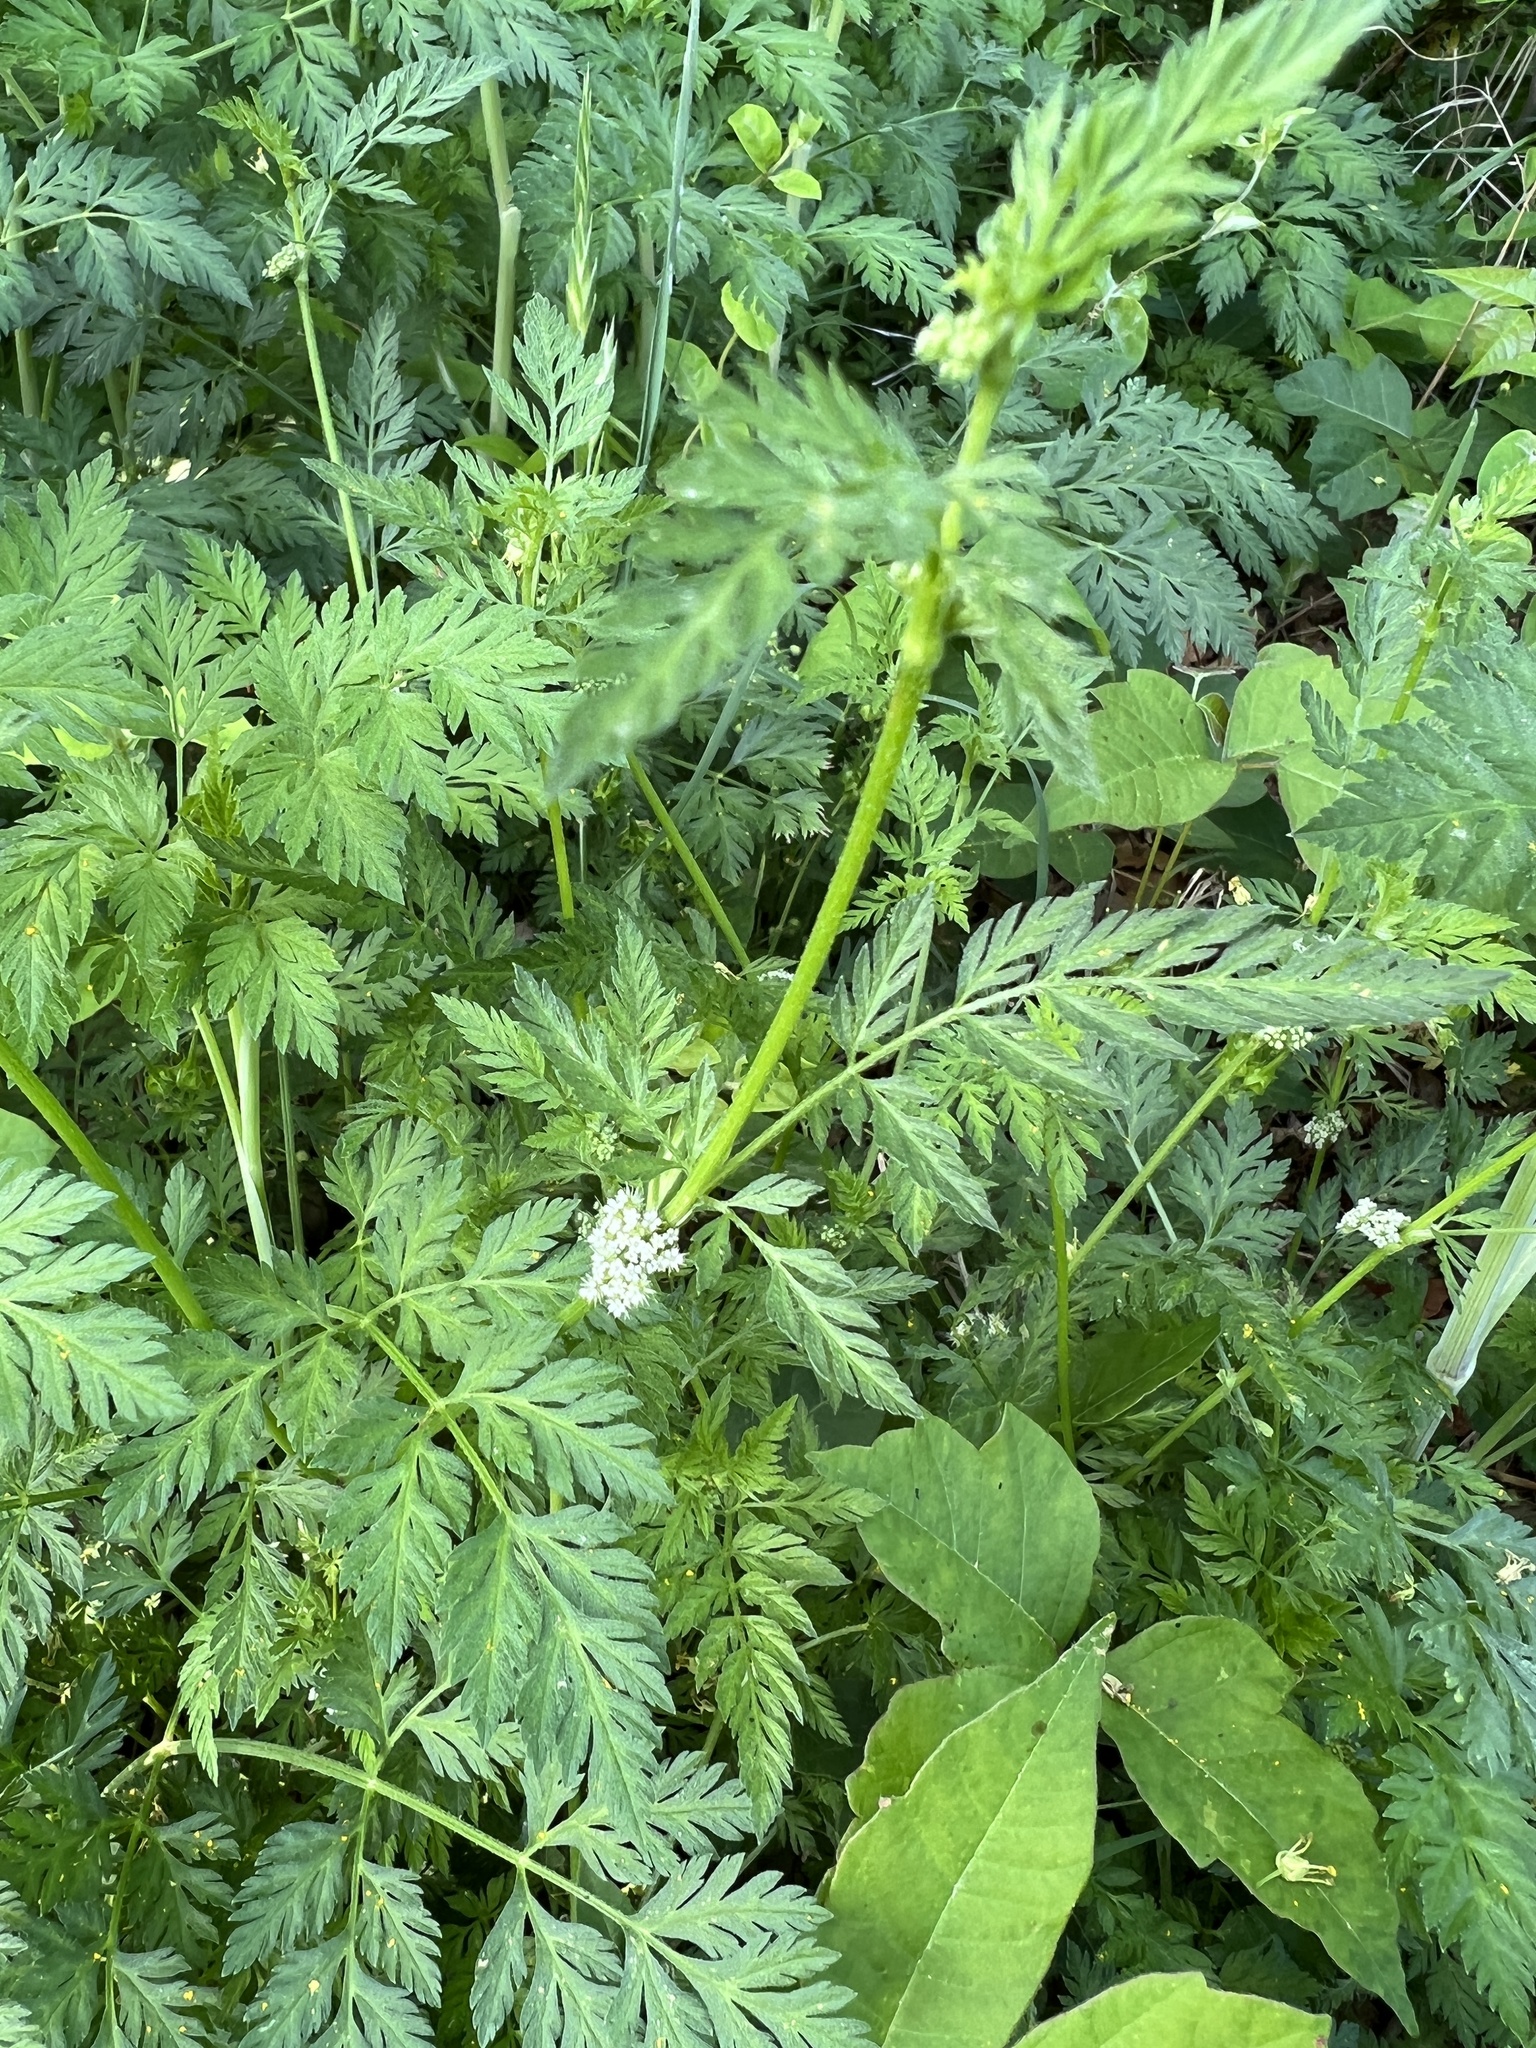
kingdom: Plantae
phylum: Tracheophyta
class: Magnoliopsida
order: Apiales
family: Apiaceae
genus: Torilis
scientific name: Torilis nodosa
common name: Knotted hedge-parsley
